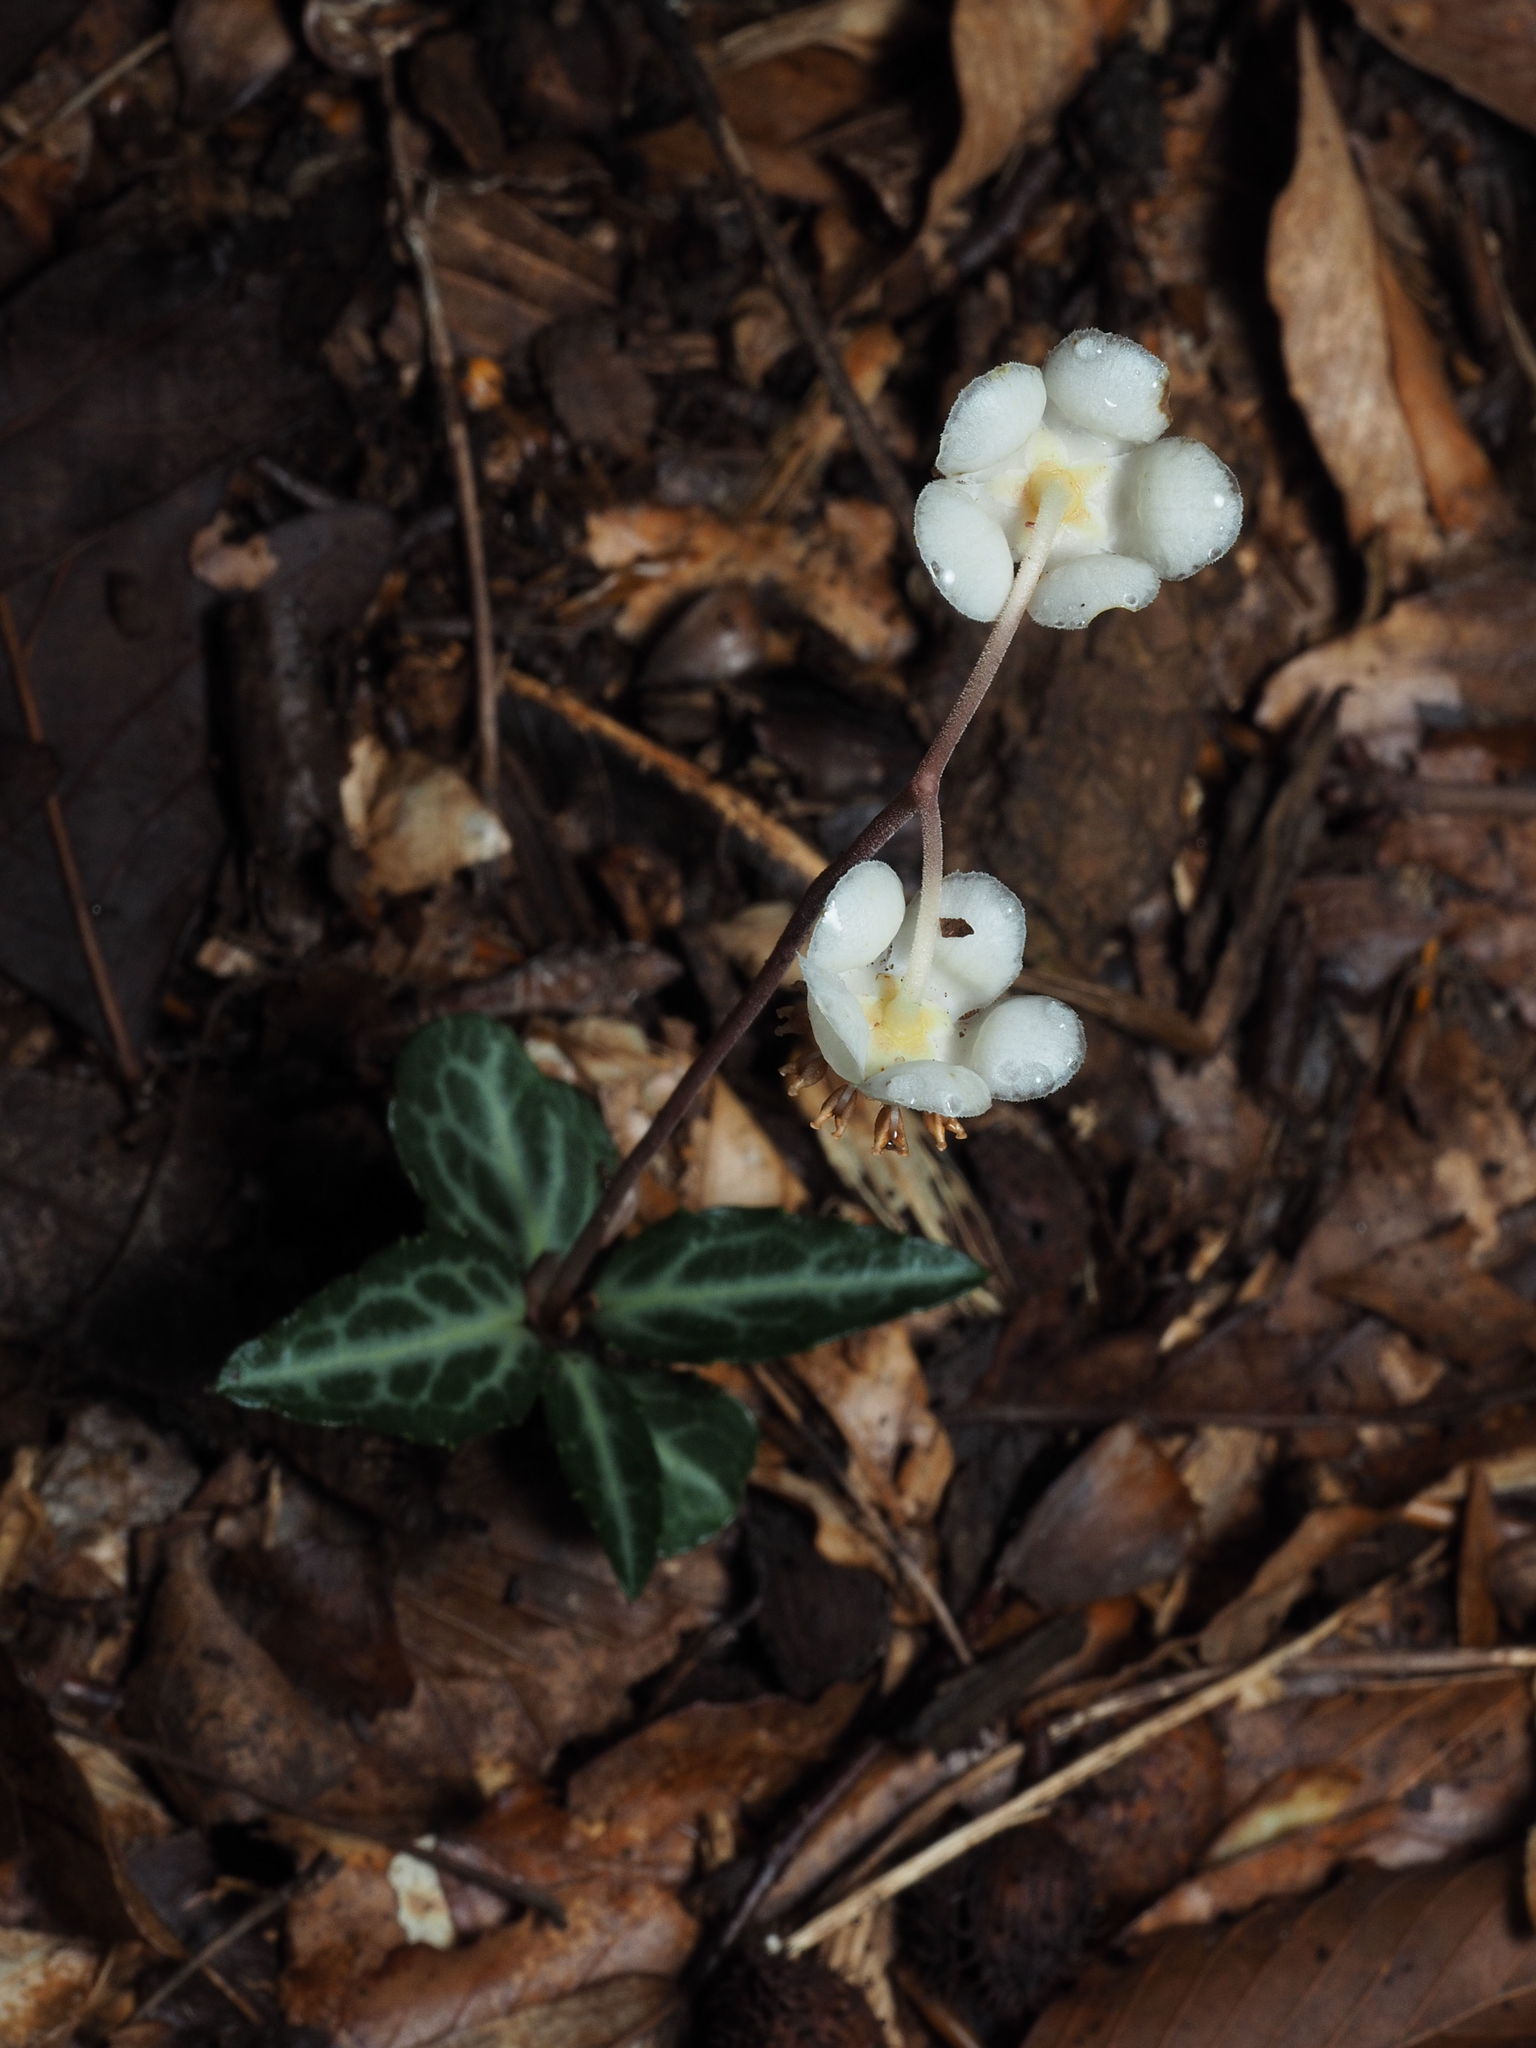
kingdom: Plantae
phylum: Tracheophyta
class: Magnoliopsida
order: Ericales
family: Ericaceae
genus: Chimaphila
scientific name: Chimaphila maculata
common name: Spotted pipsissewa
